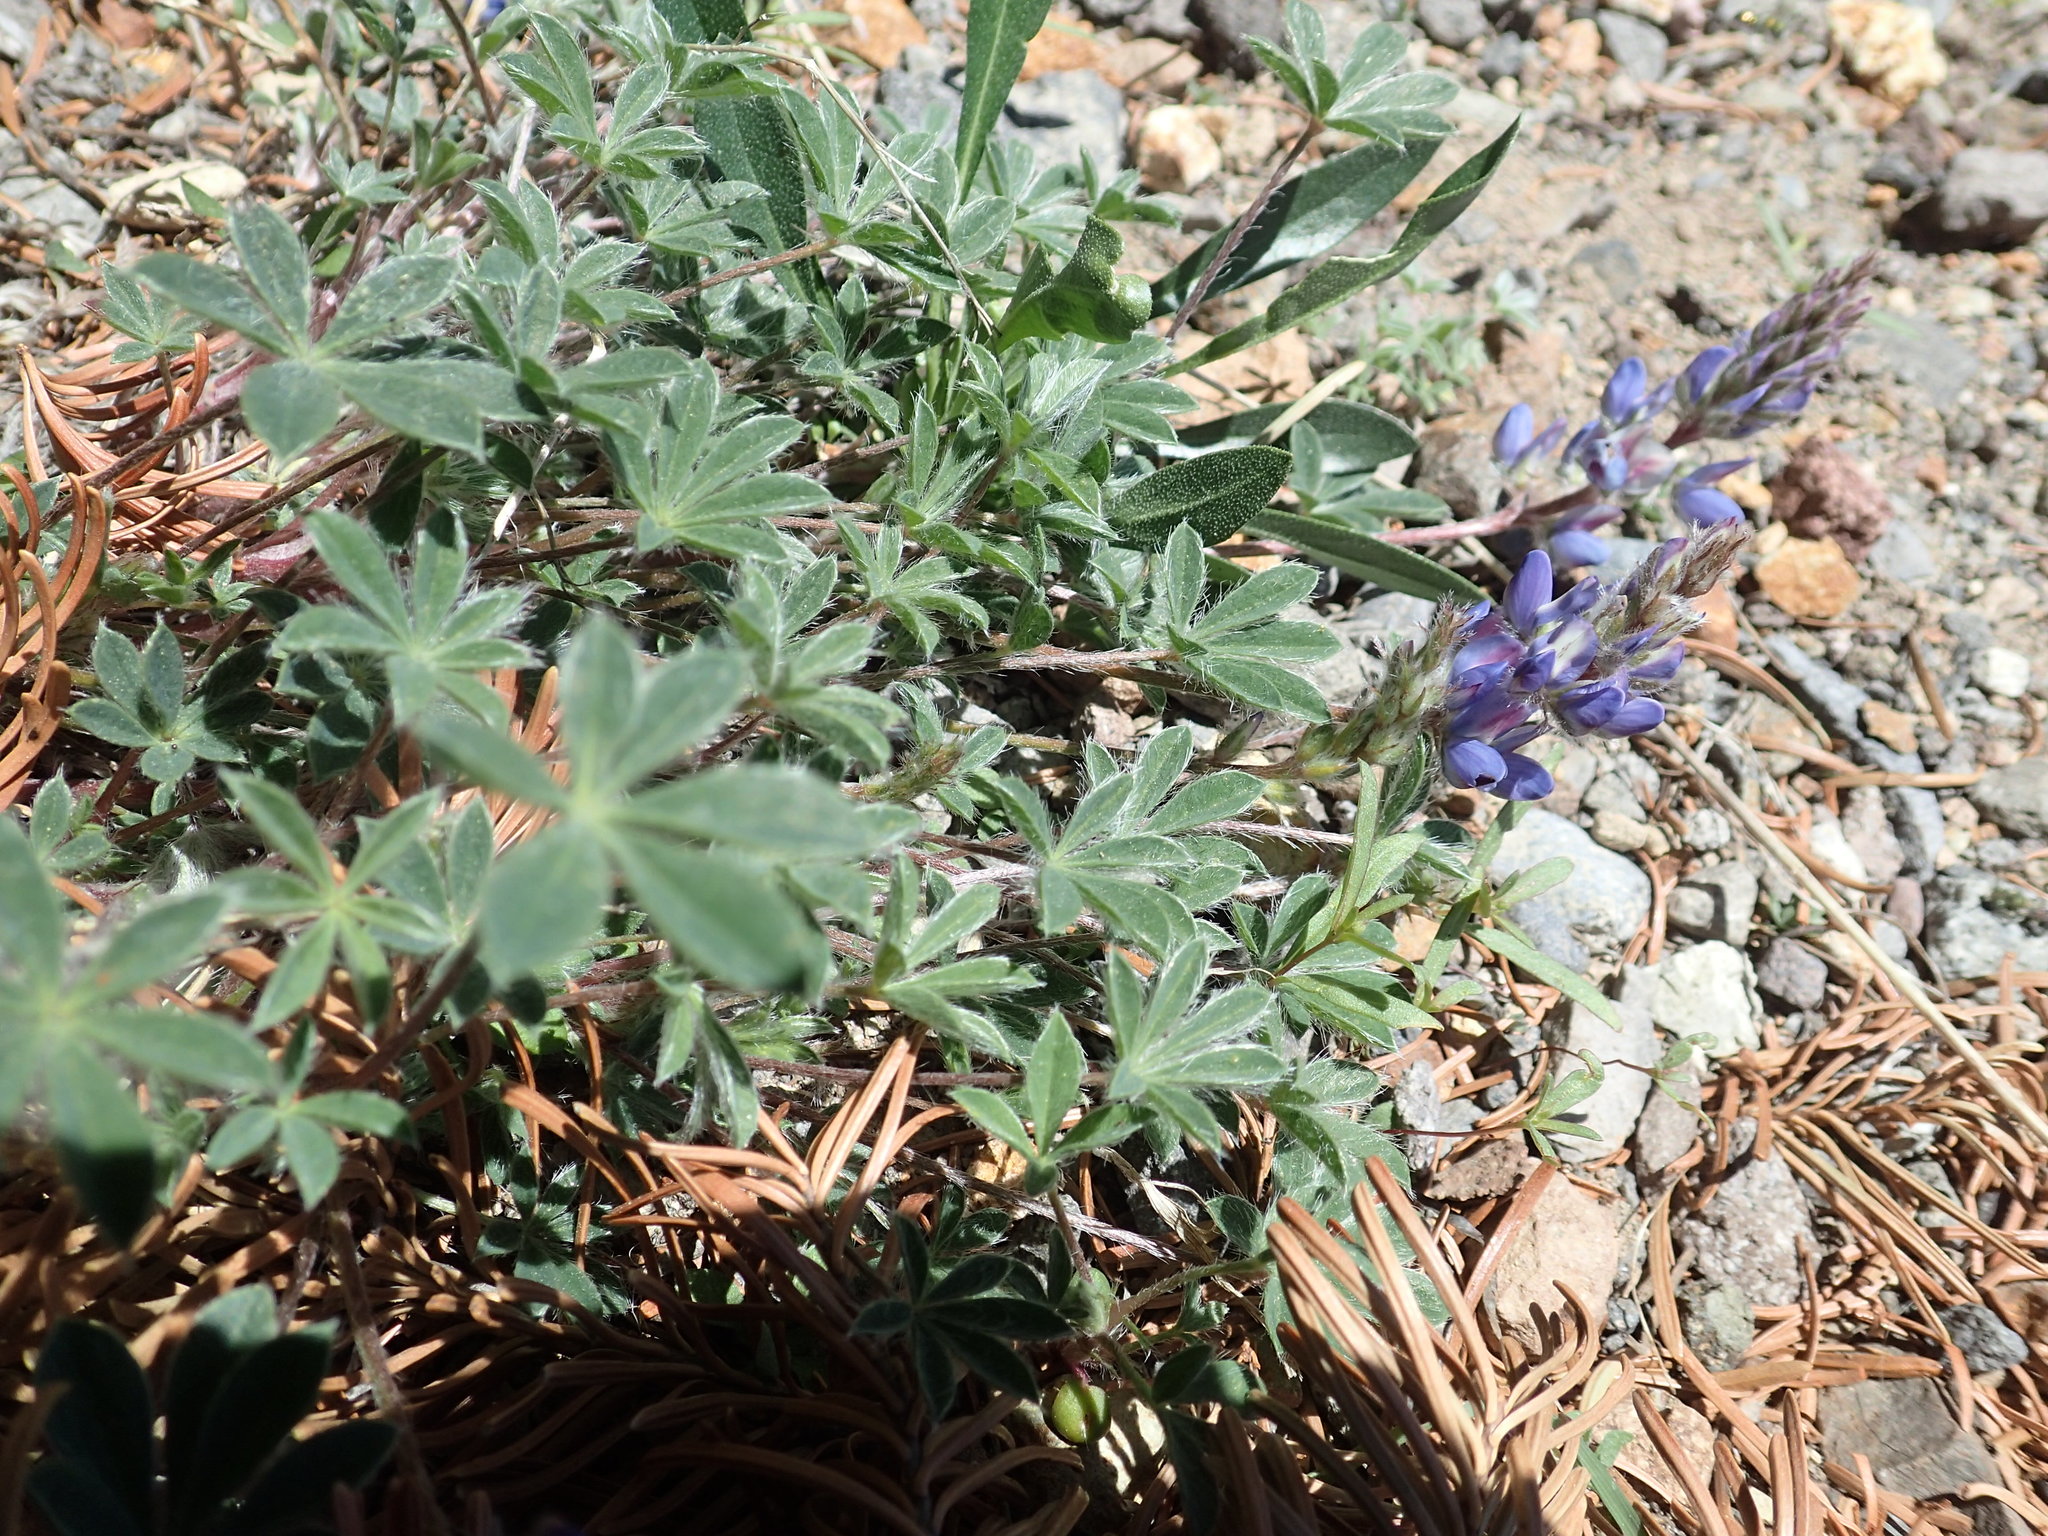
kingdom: Plantae
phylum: Tracheophyta
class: Magnoliopsida
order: Fabales
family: Fabaceae
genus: Lupinus
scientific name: Lupinus lepidus
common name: Prairie lupine
